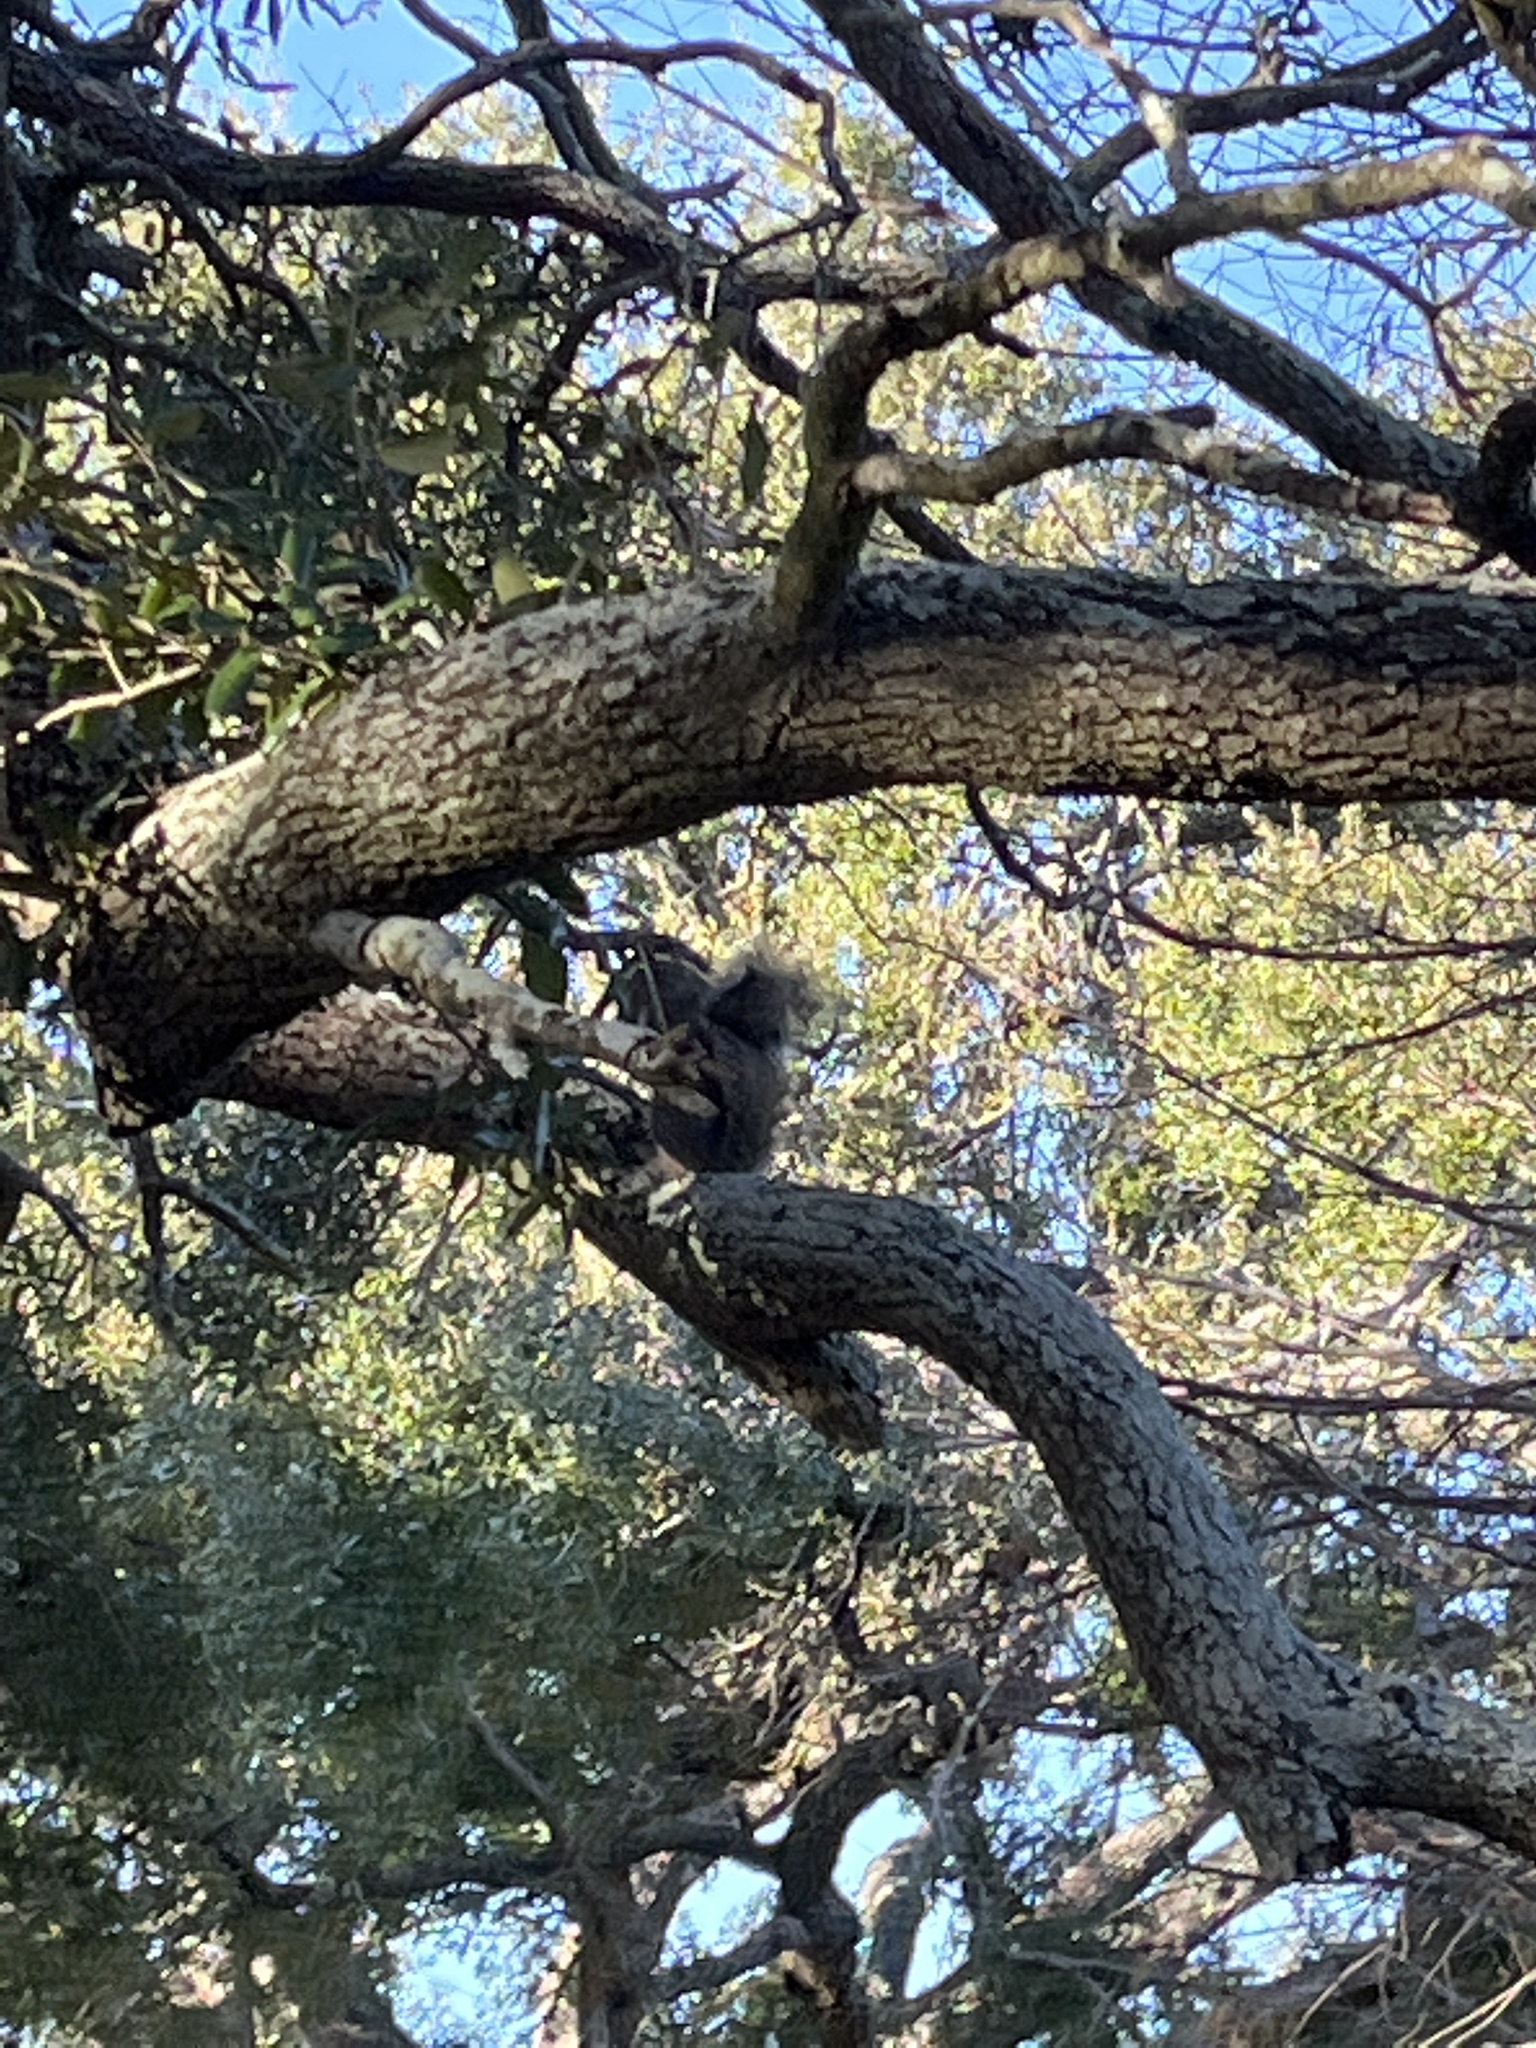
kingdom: Animalia
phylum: Chordata
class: Mammalia
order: Rodentia
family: Sciuridae
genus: Sciurus
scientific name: Sciurus carolinensis
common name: Eastern gray squirrel
